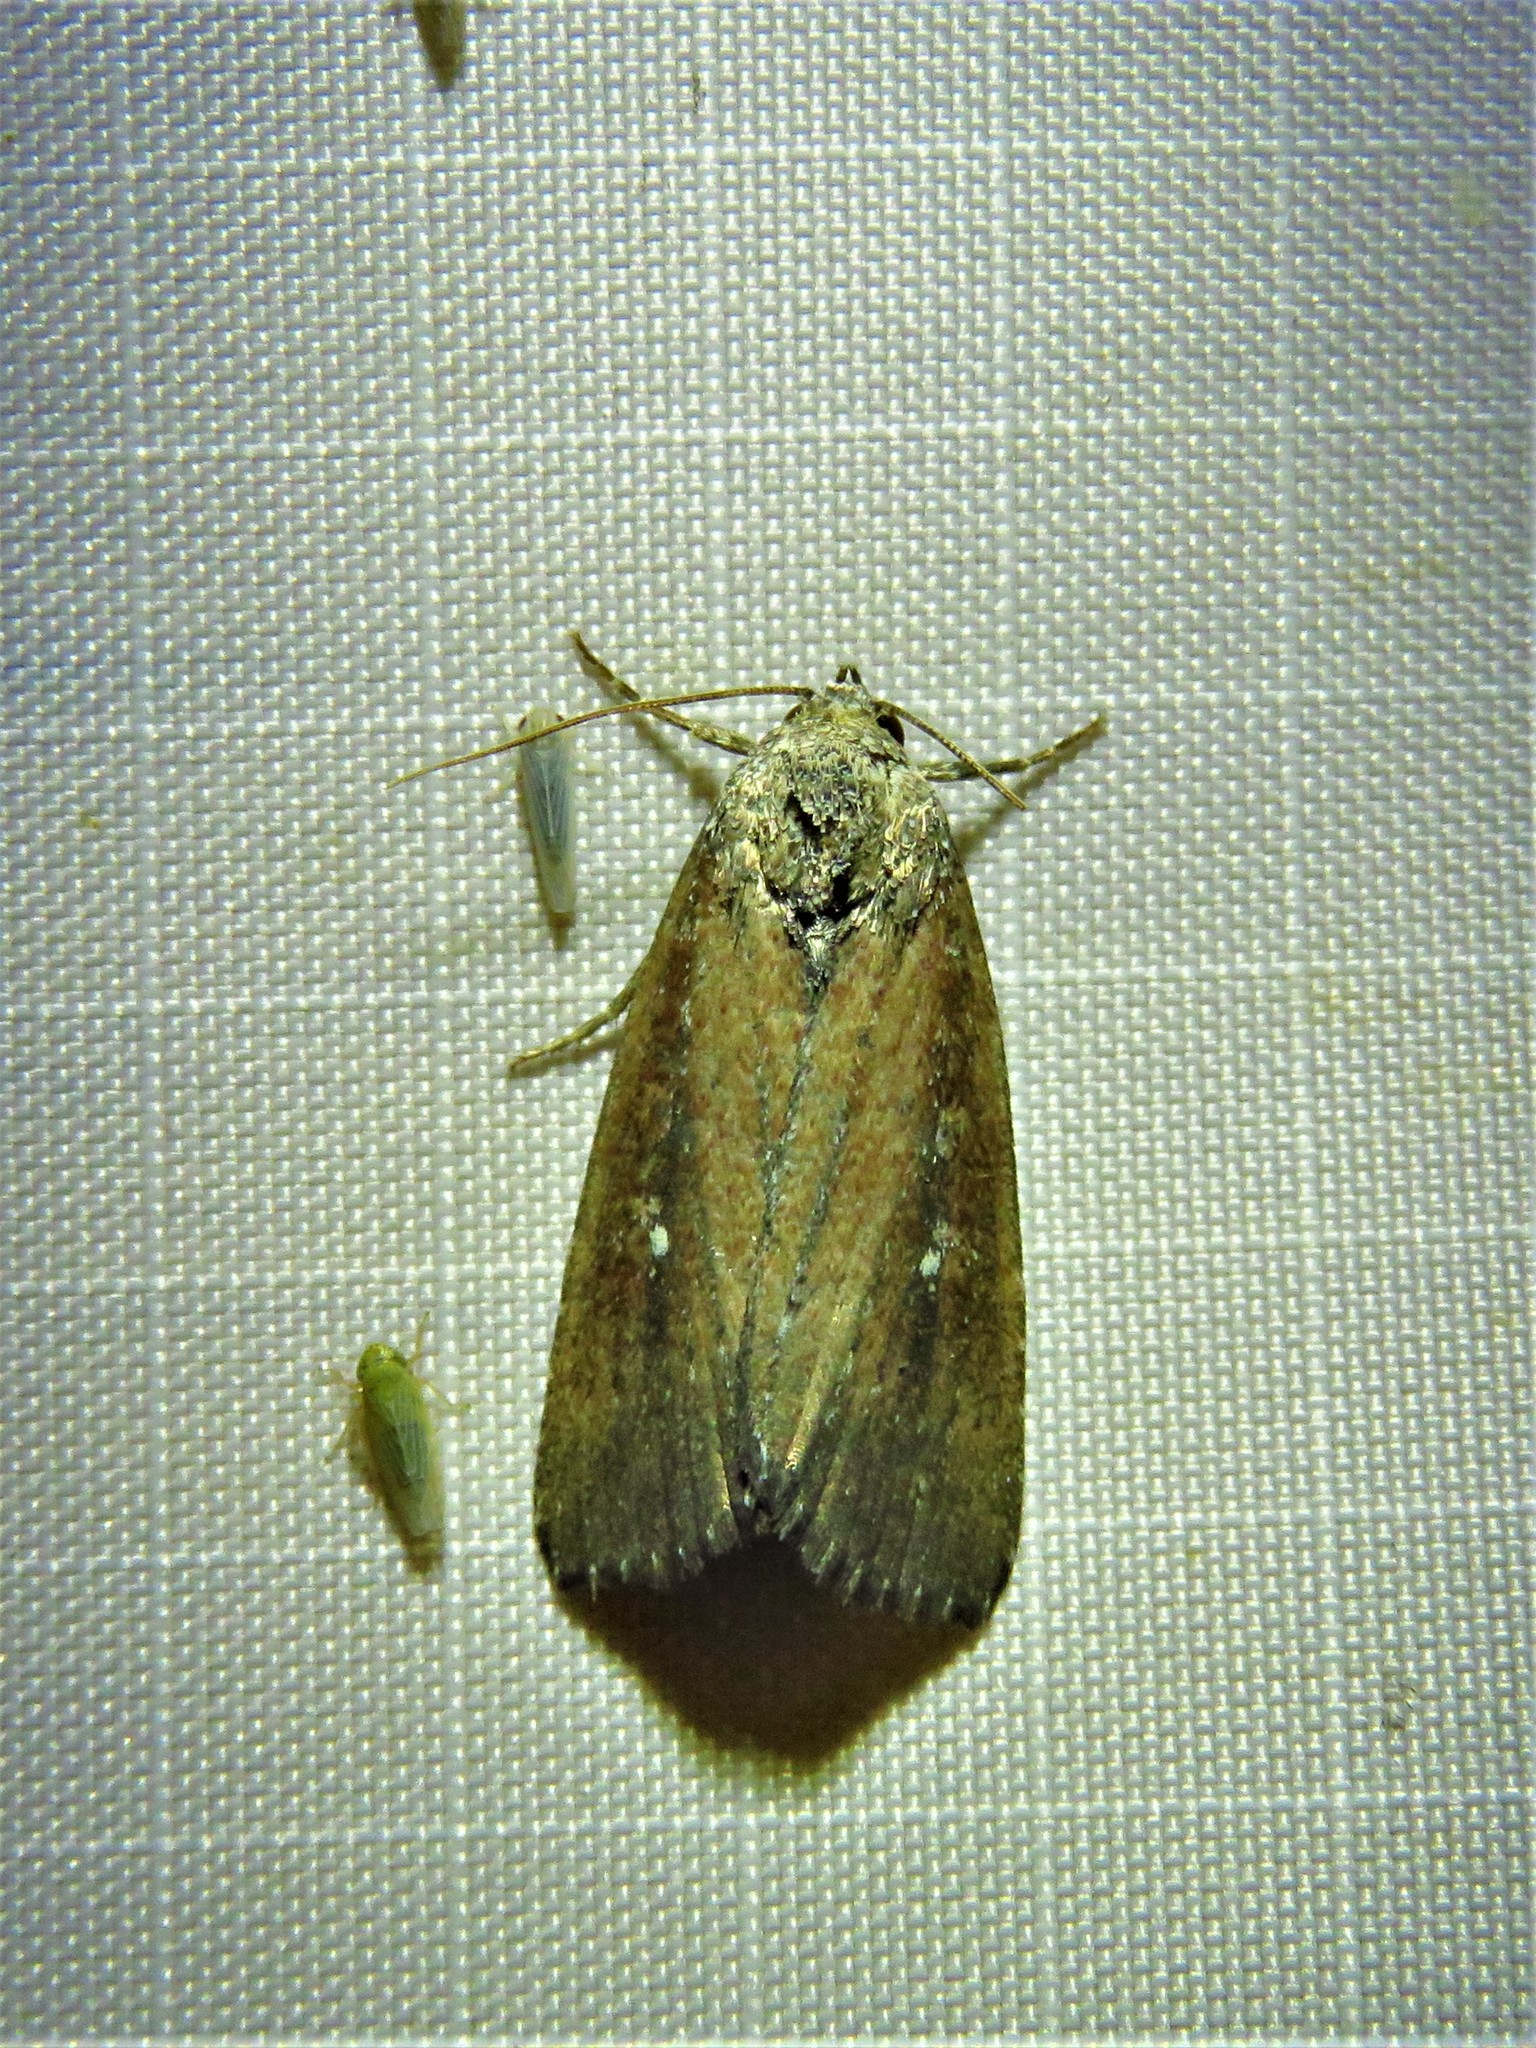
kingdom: Animalia
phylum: Arthropoda
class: Insecta
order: Lepidoptera
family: Noctuidae
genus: Condica
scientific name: Condica videns
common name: White-dotted groundling
